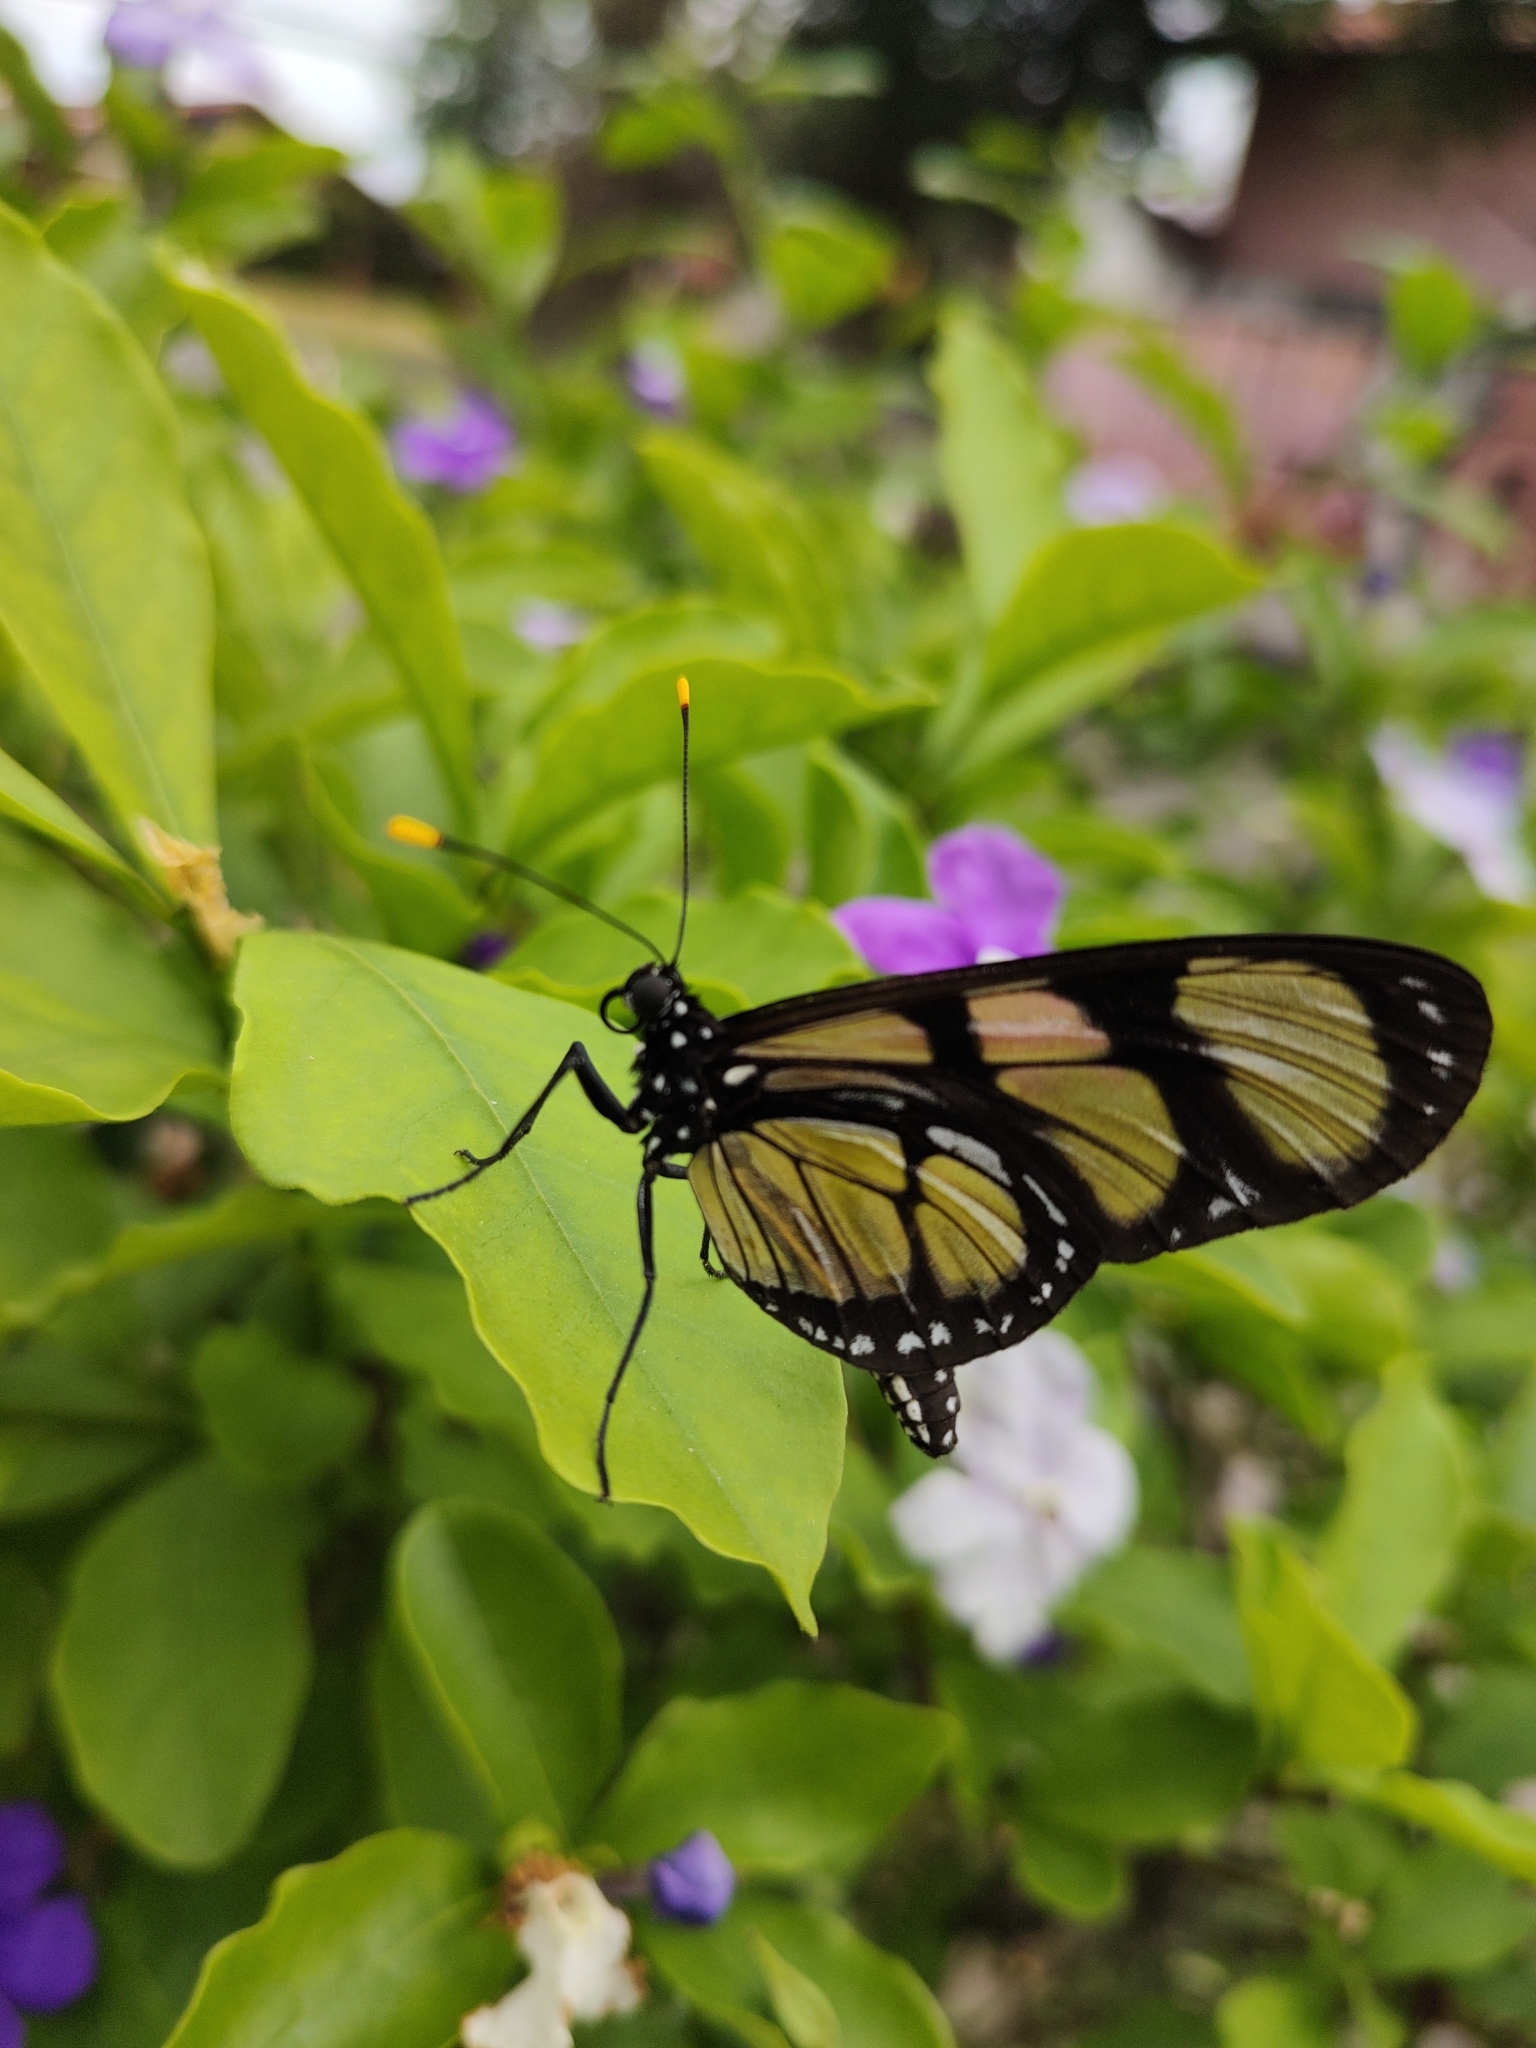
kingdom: Animalia
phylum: Arthropoda
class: Insecta
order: Lepidoptera
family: Nymphalidae
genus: Methona
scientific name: Methona themisto
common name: Themisto amberwing
